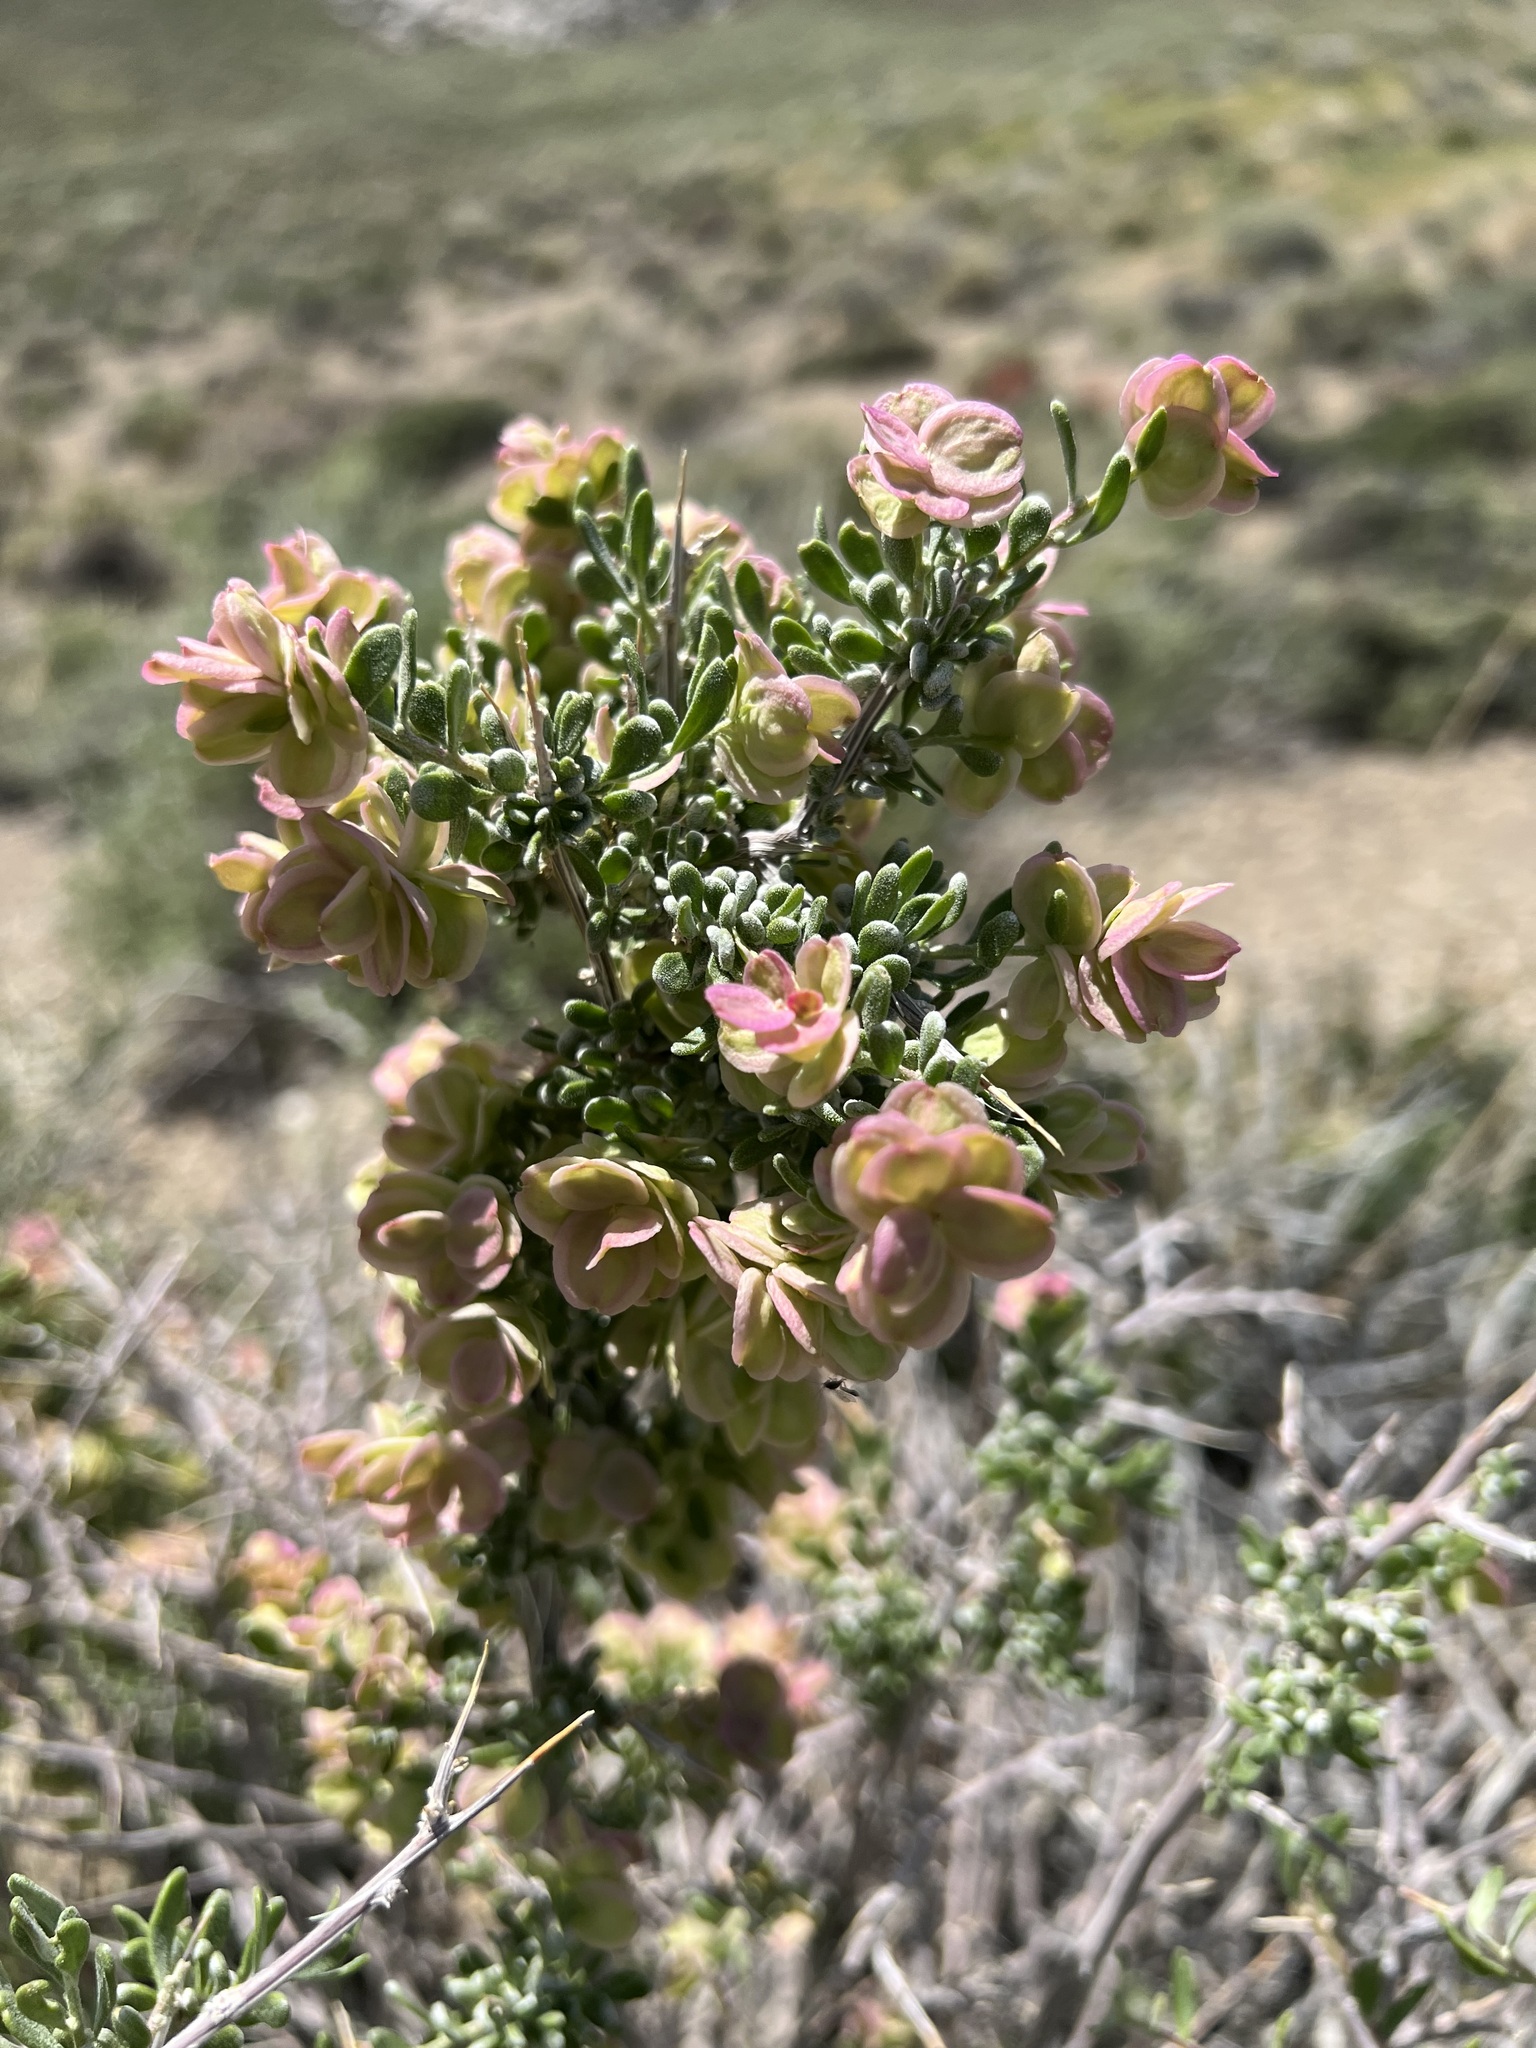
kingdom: Plantae
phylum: Tracheophyta
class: Magnoliopsida
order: Caryophyllales
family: Amaranthaceae
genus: Grayia
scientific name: Grayia spinosa
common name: Spiny hopsage
